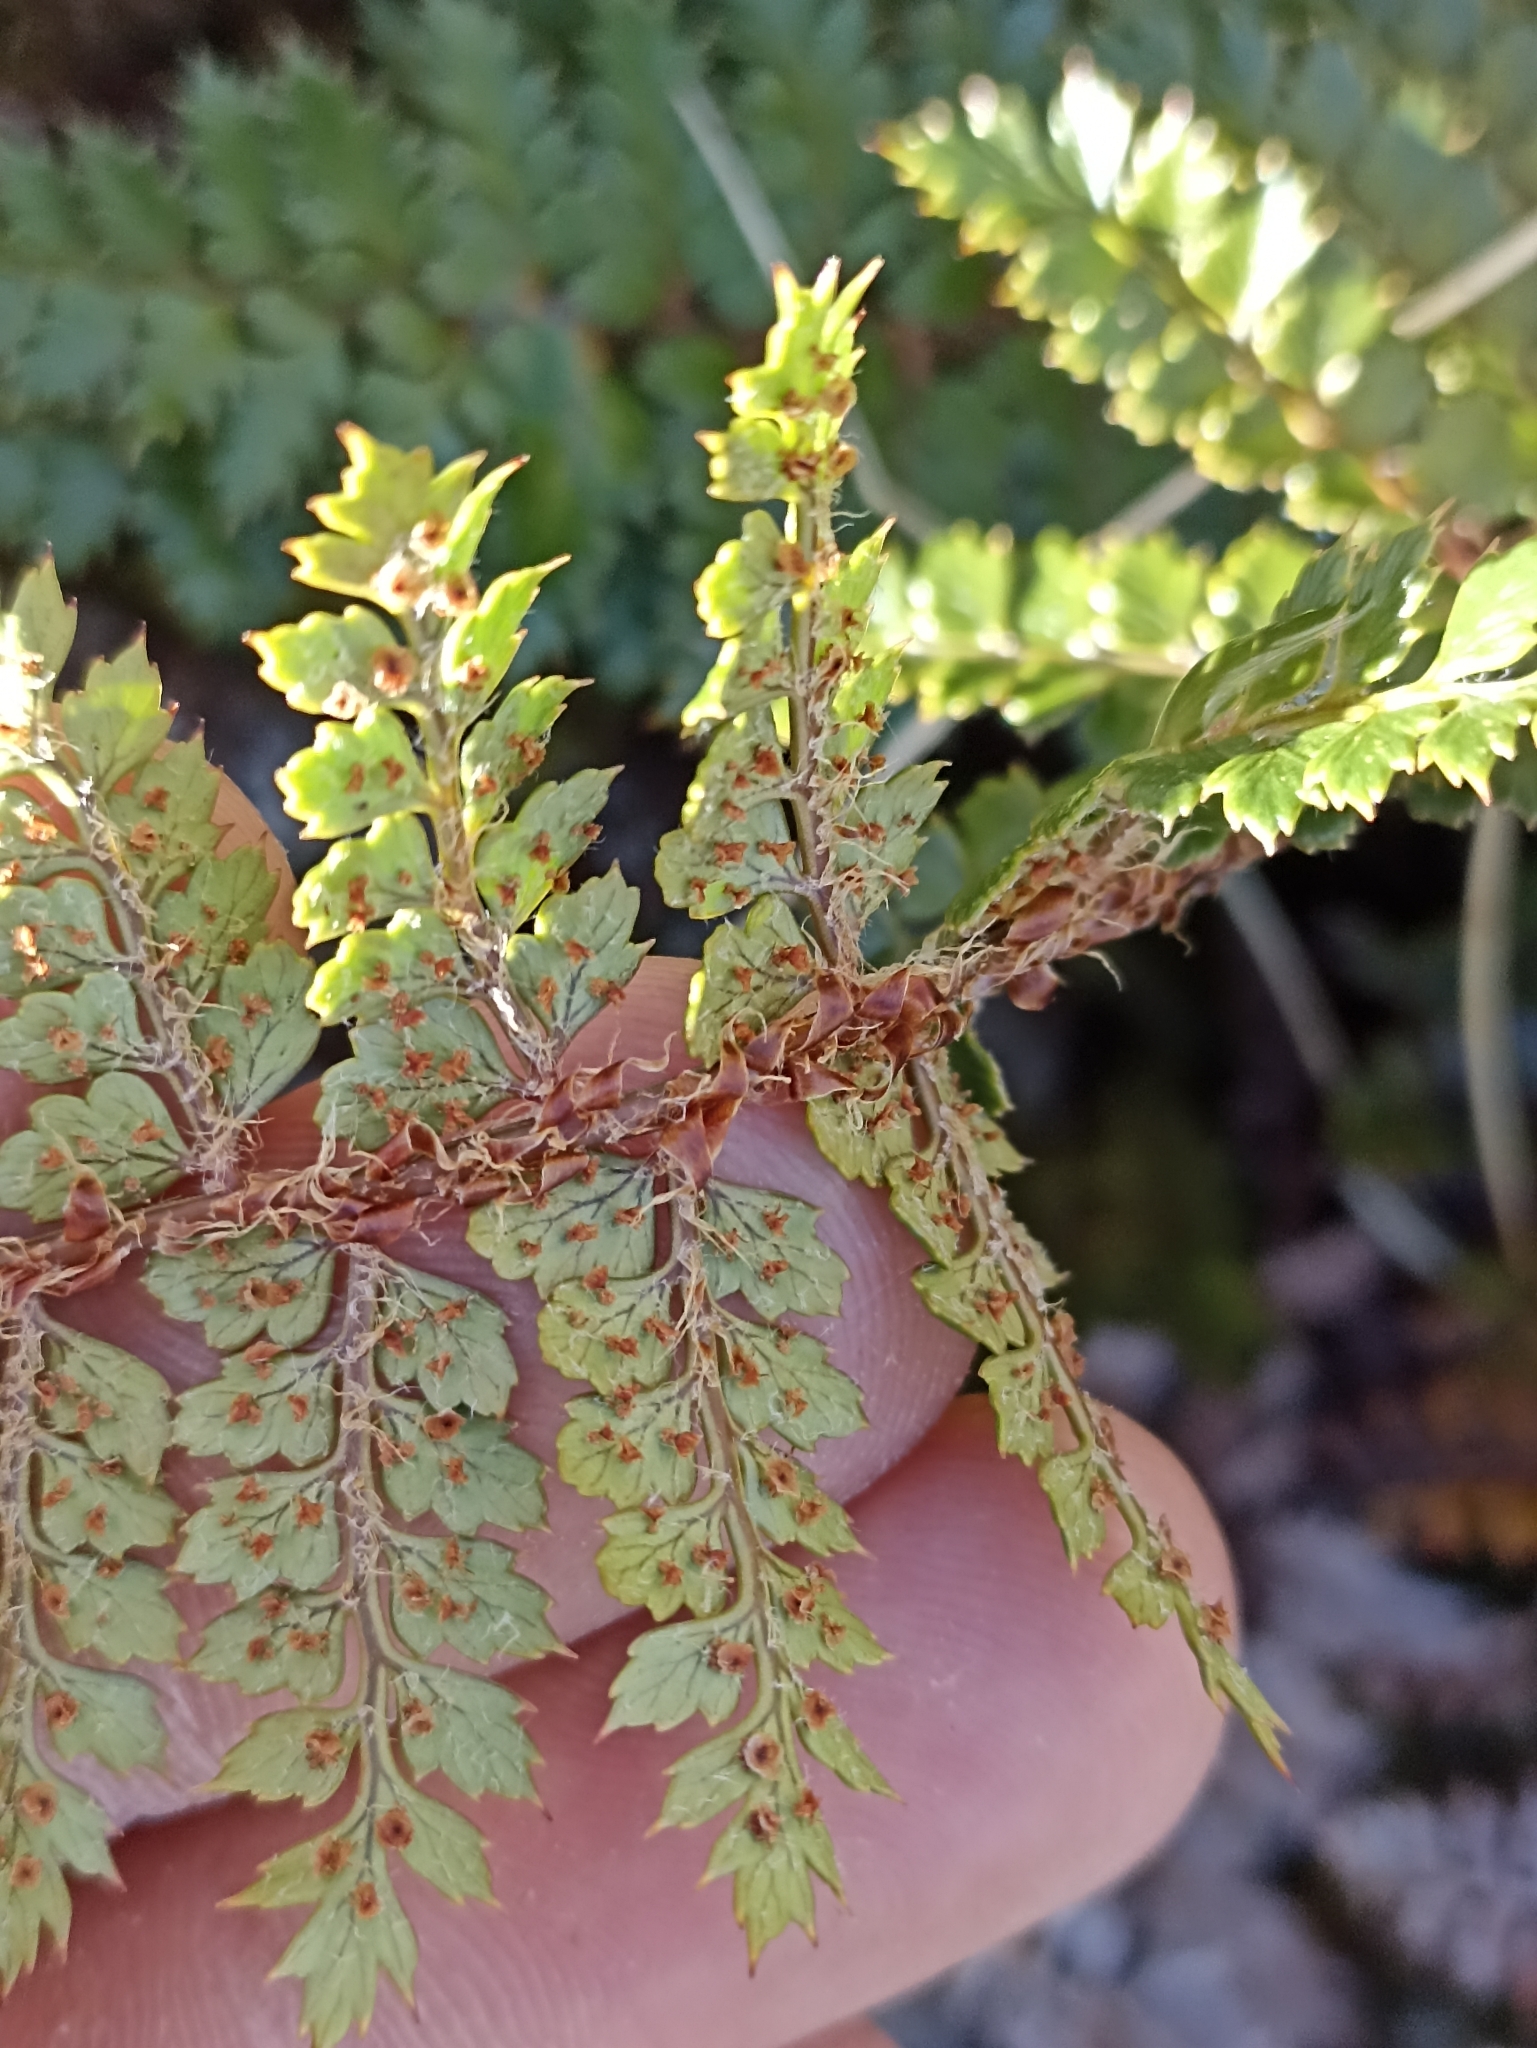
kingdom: Plantae
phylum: Tracheophyta
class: Polypodiopsida
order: Polypodiales
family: Dryopteridaceae
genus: Polystichum
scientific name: Polystichum vestitum
